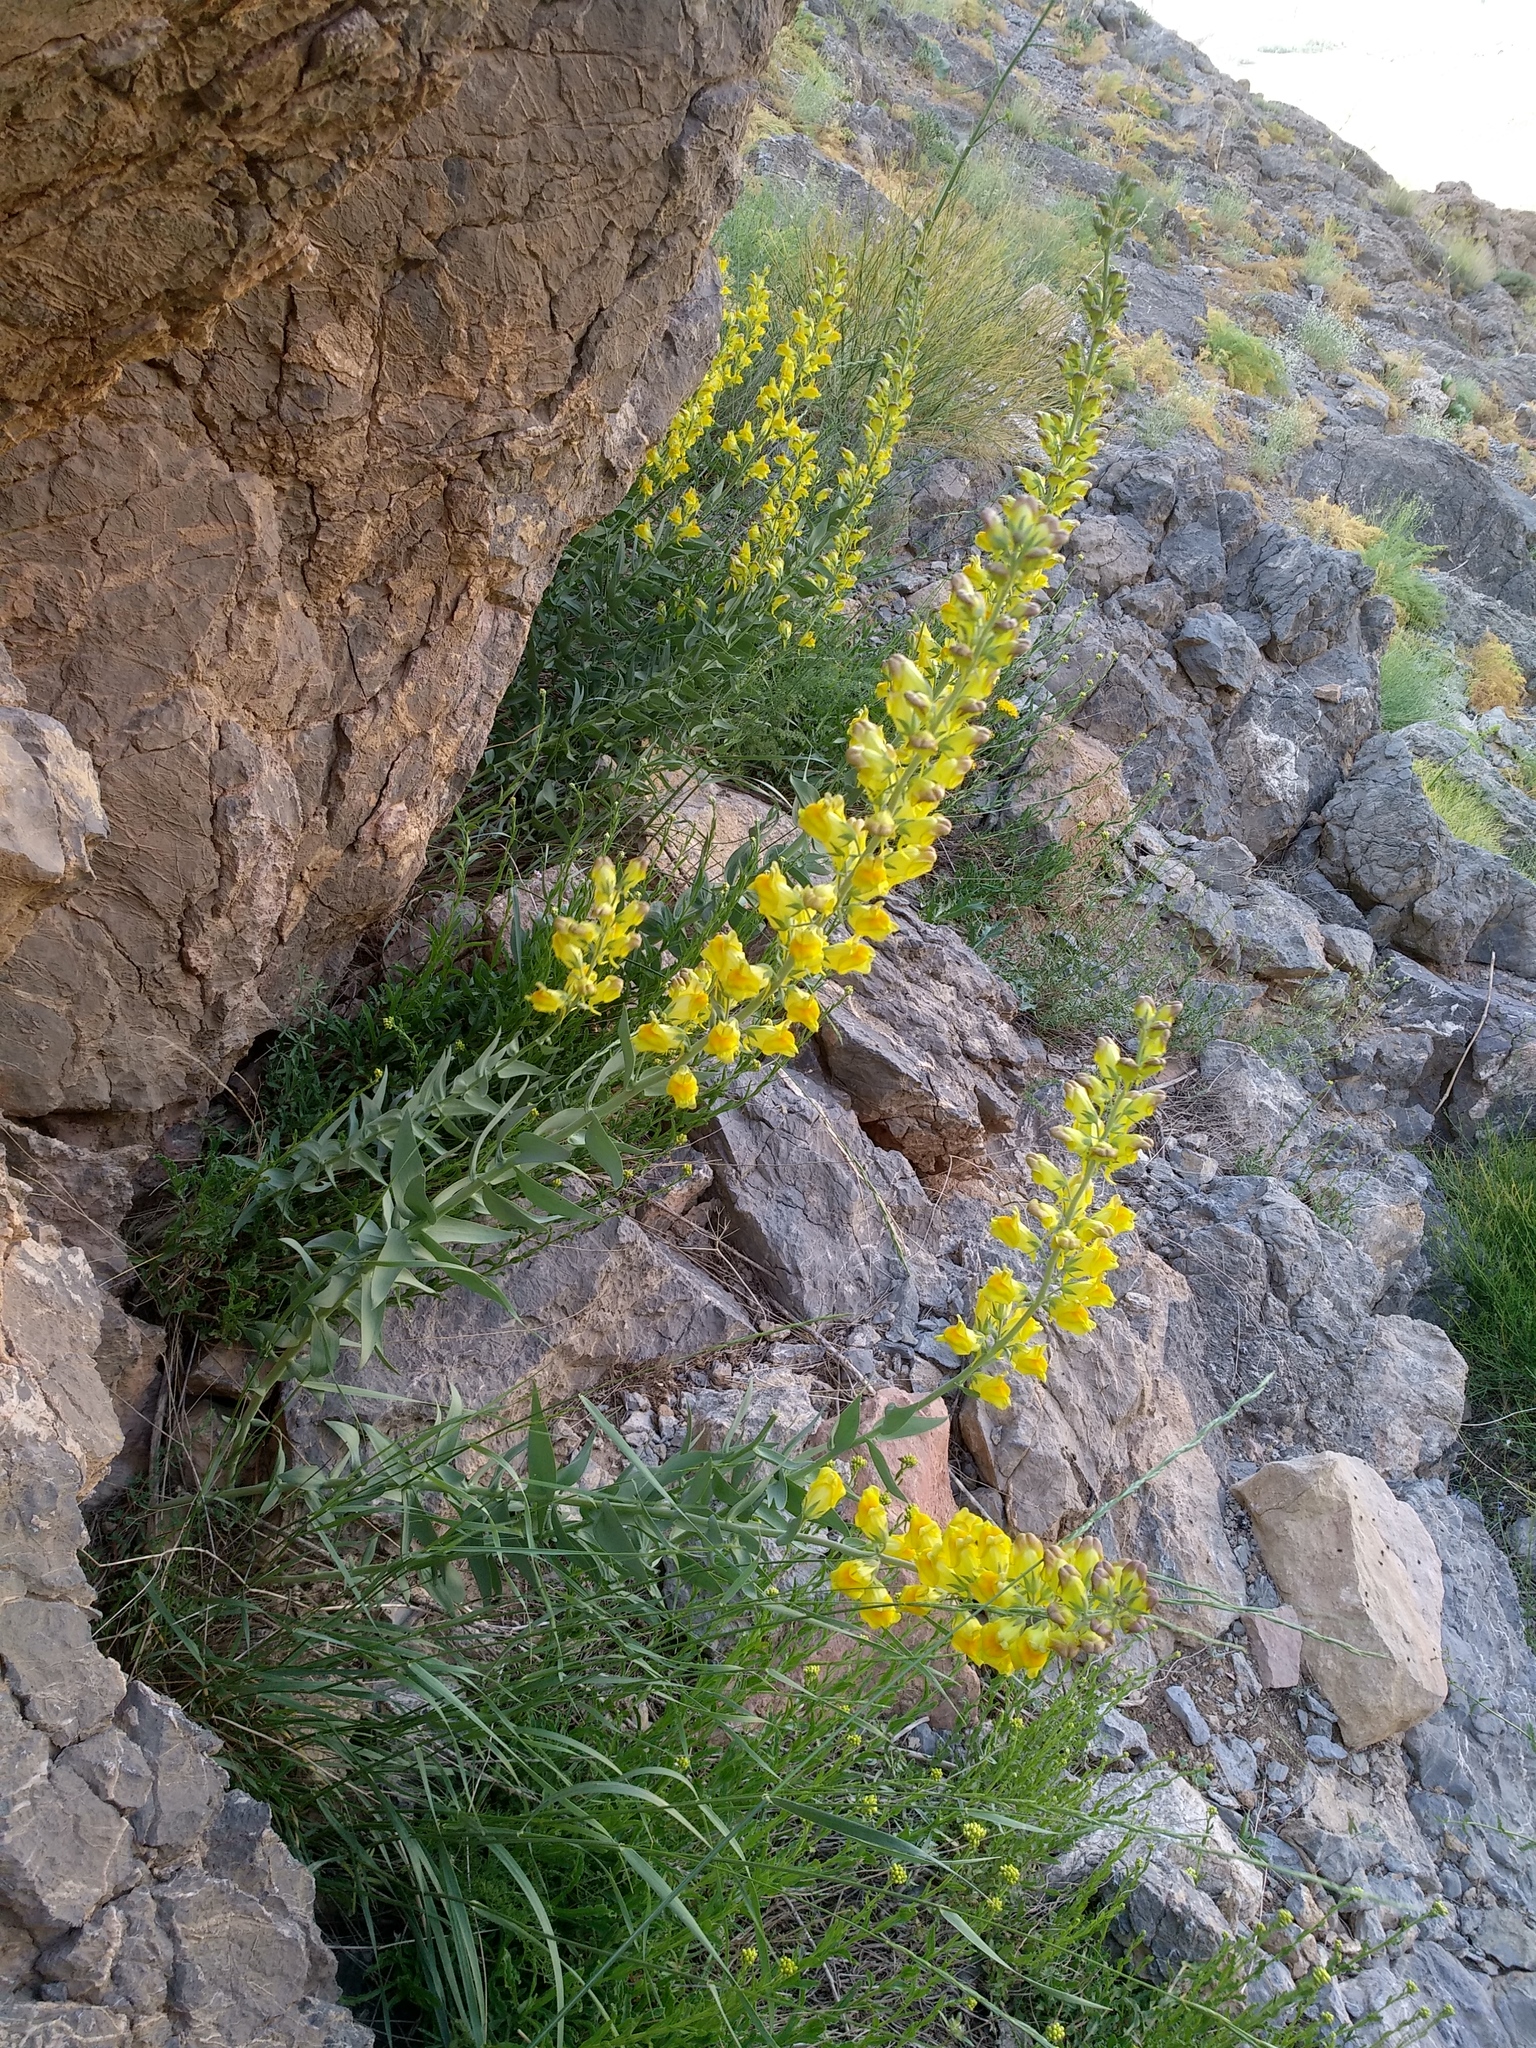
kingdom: Plantae
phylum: Tracheophyta
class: Magnoliopsida
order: Lamiales
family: Plantaginaceae
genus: Linaria
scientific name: Linaria grandiflora
